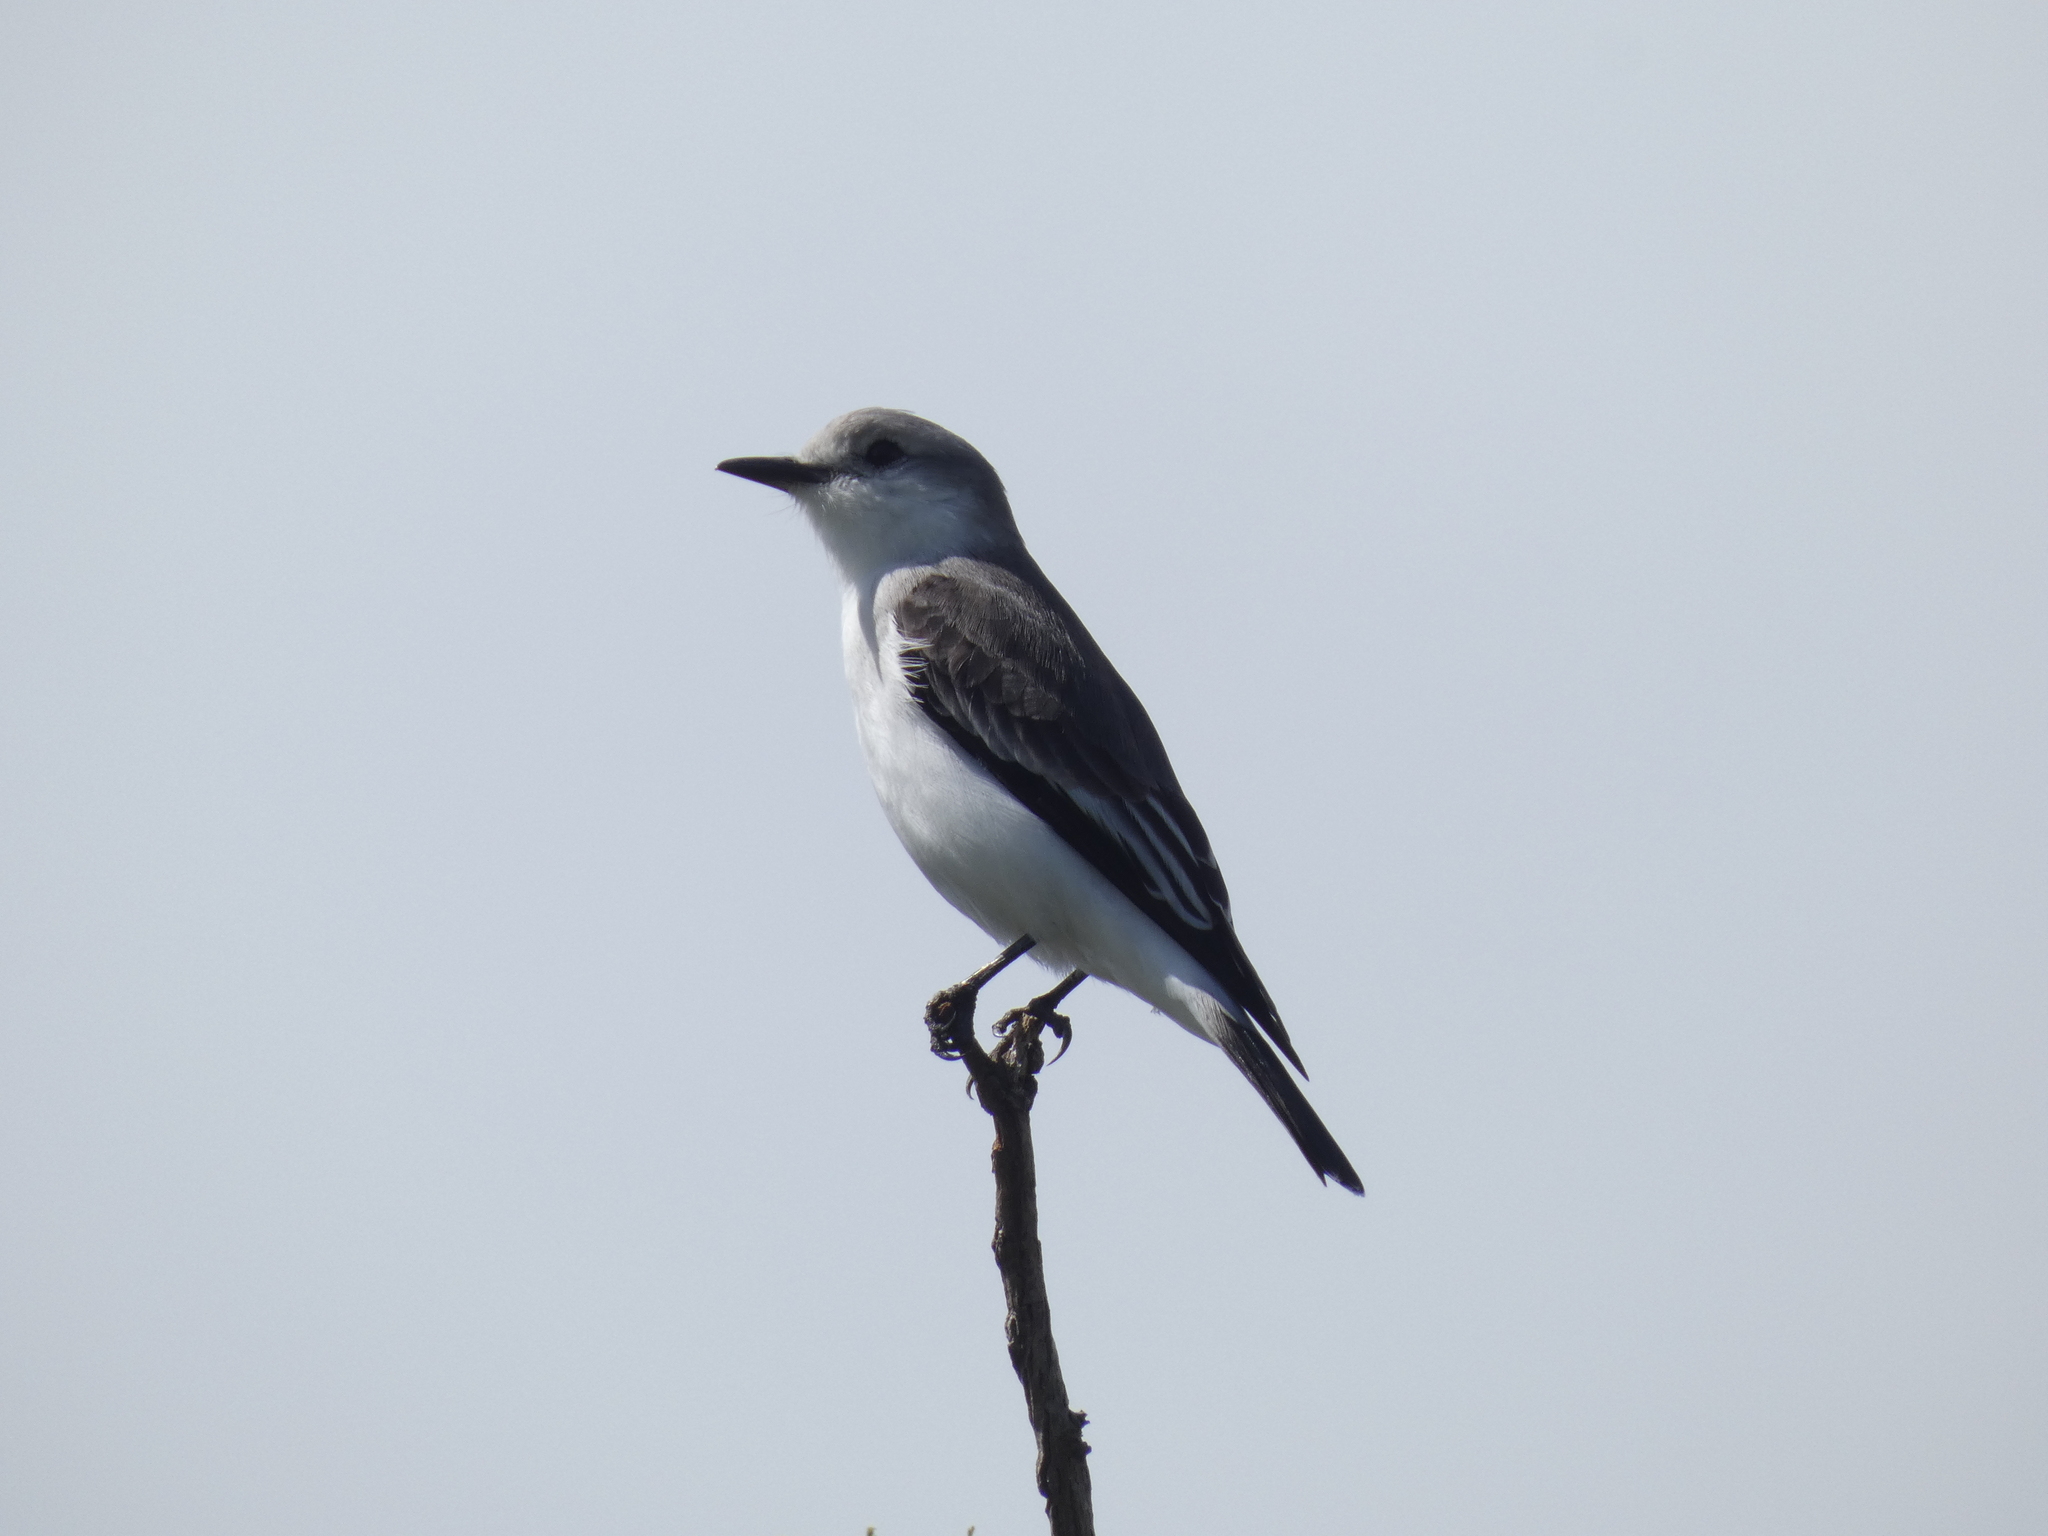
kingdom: Animalia
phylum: Chordata
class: Aves
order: Passeriformes
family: Tyrannidae
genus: Xolmis
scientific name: Xolmis velatus
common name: White-rumped monjita
